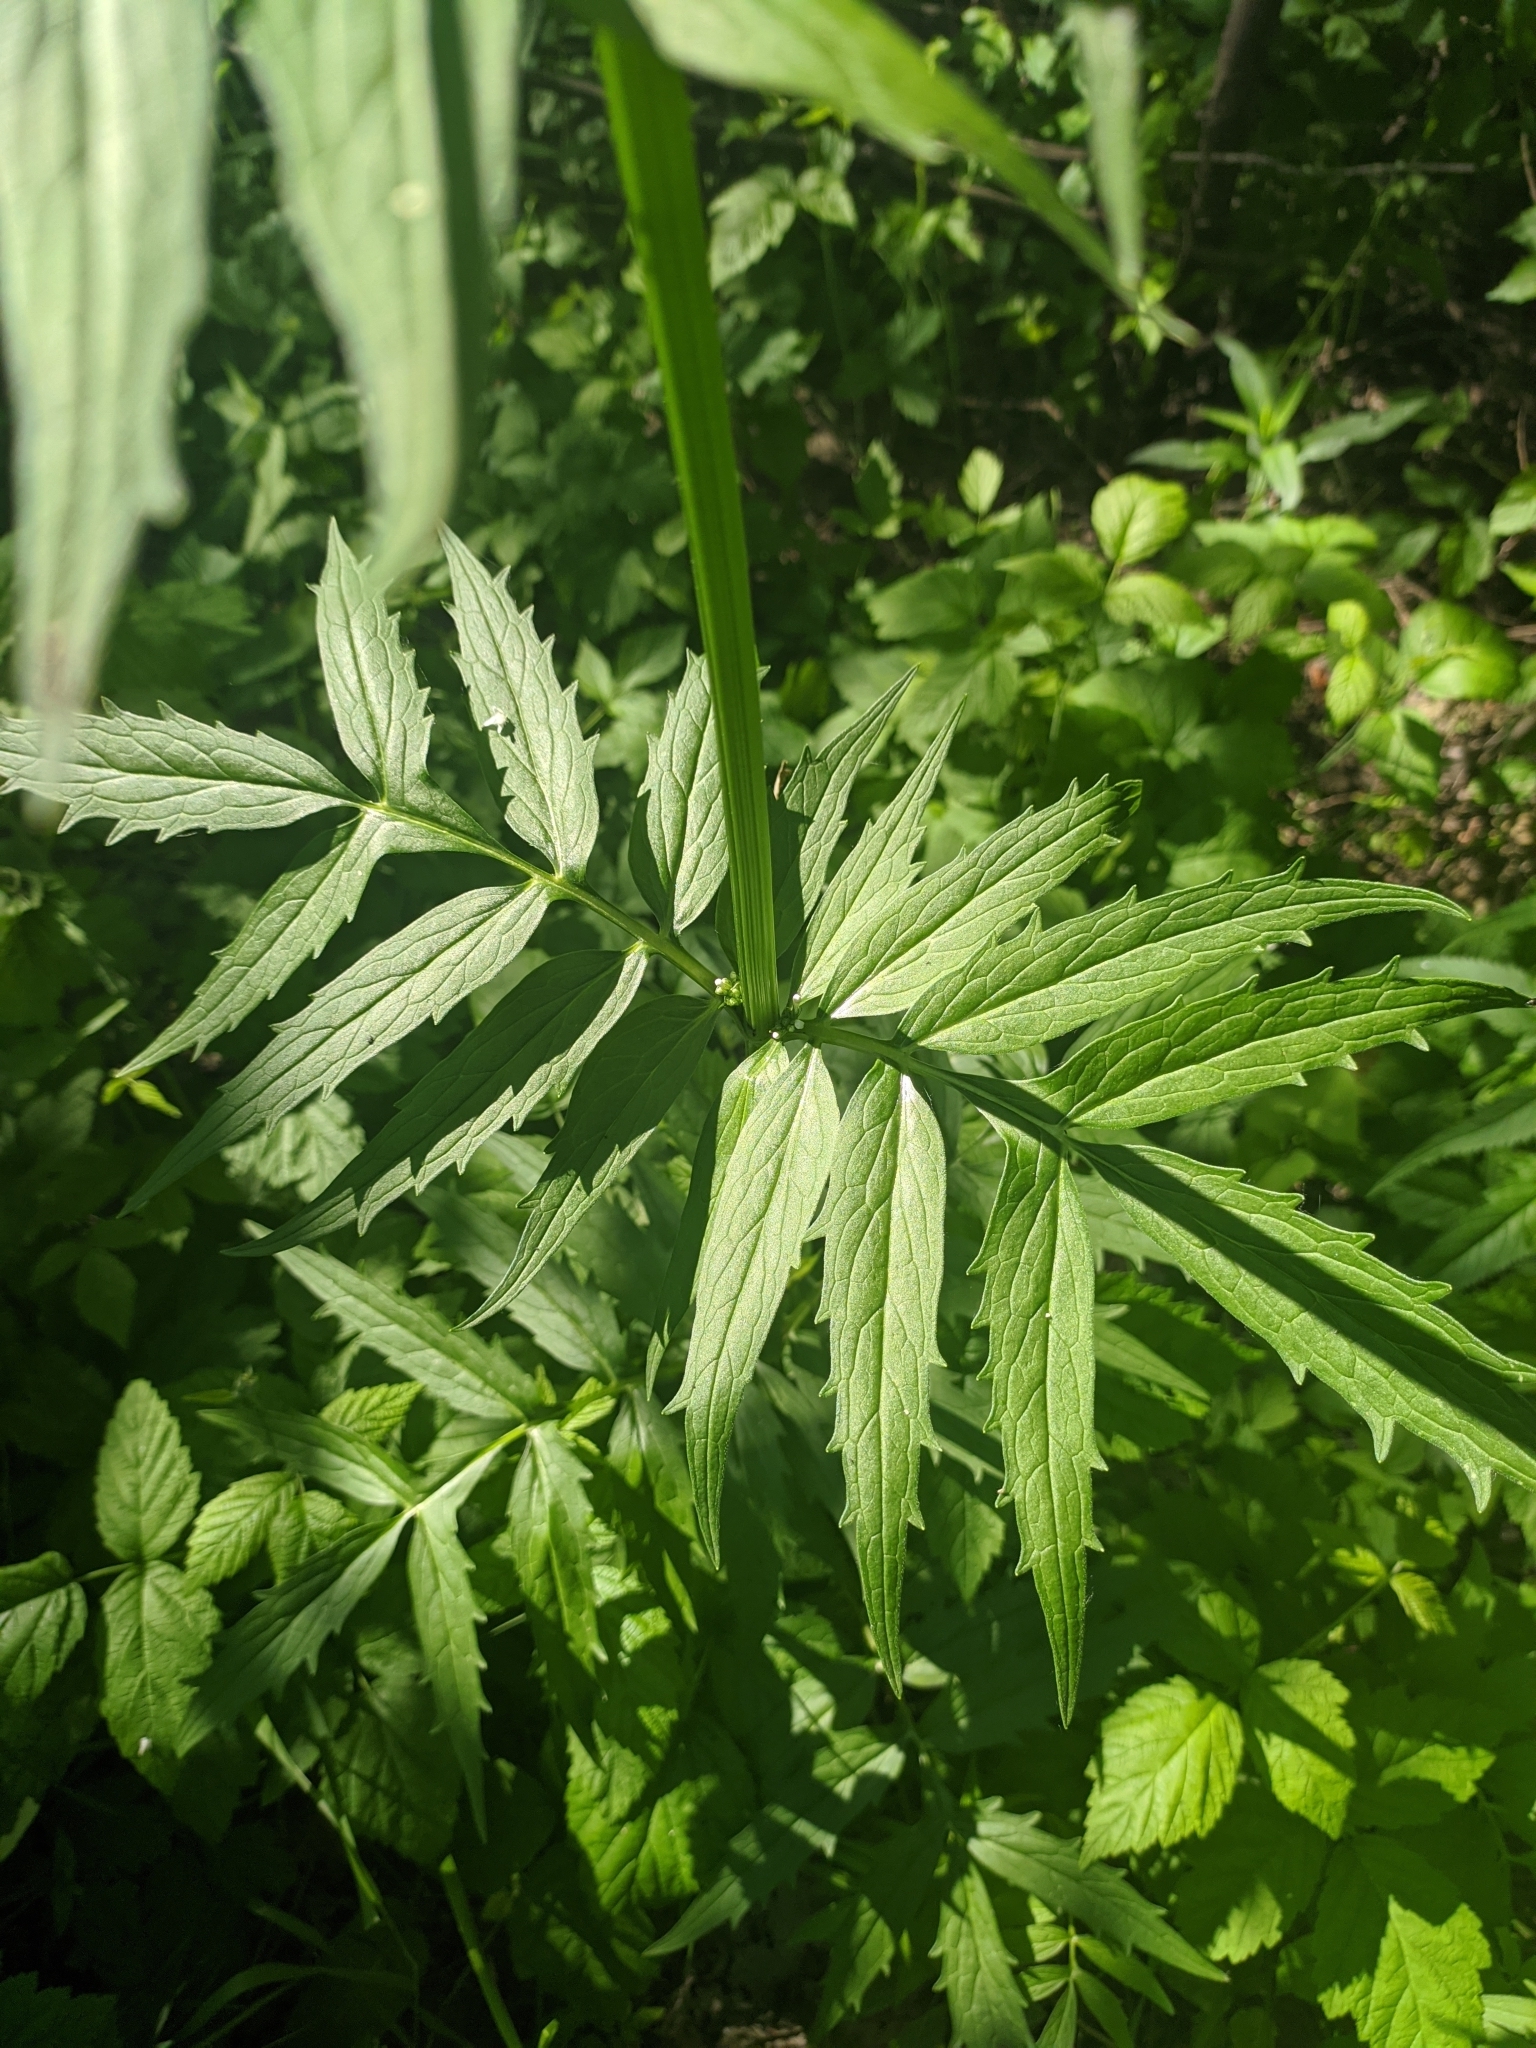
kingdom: Plantae
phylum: Tracheophyta
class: Magnoliopsida
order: Dipsacales
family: Caprifoliaceae
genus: Valeriana
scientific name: Valeriana officinalis
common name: Common valerian
